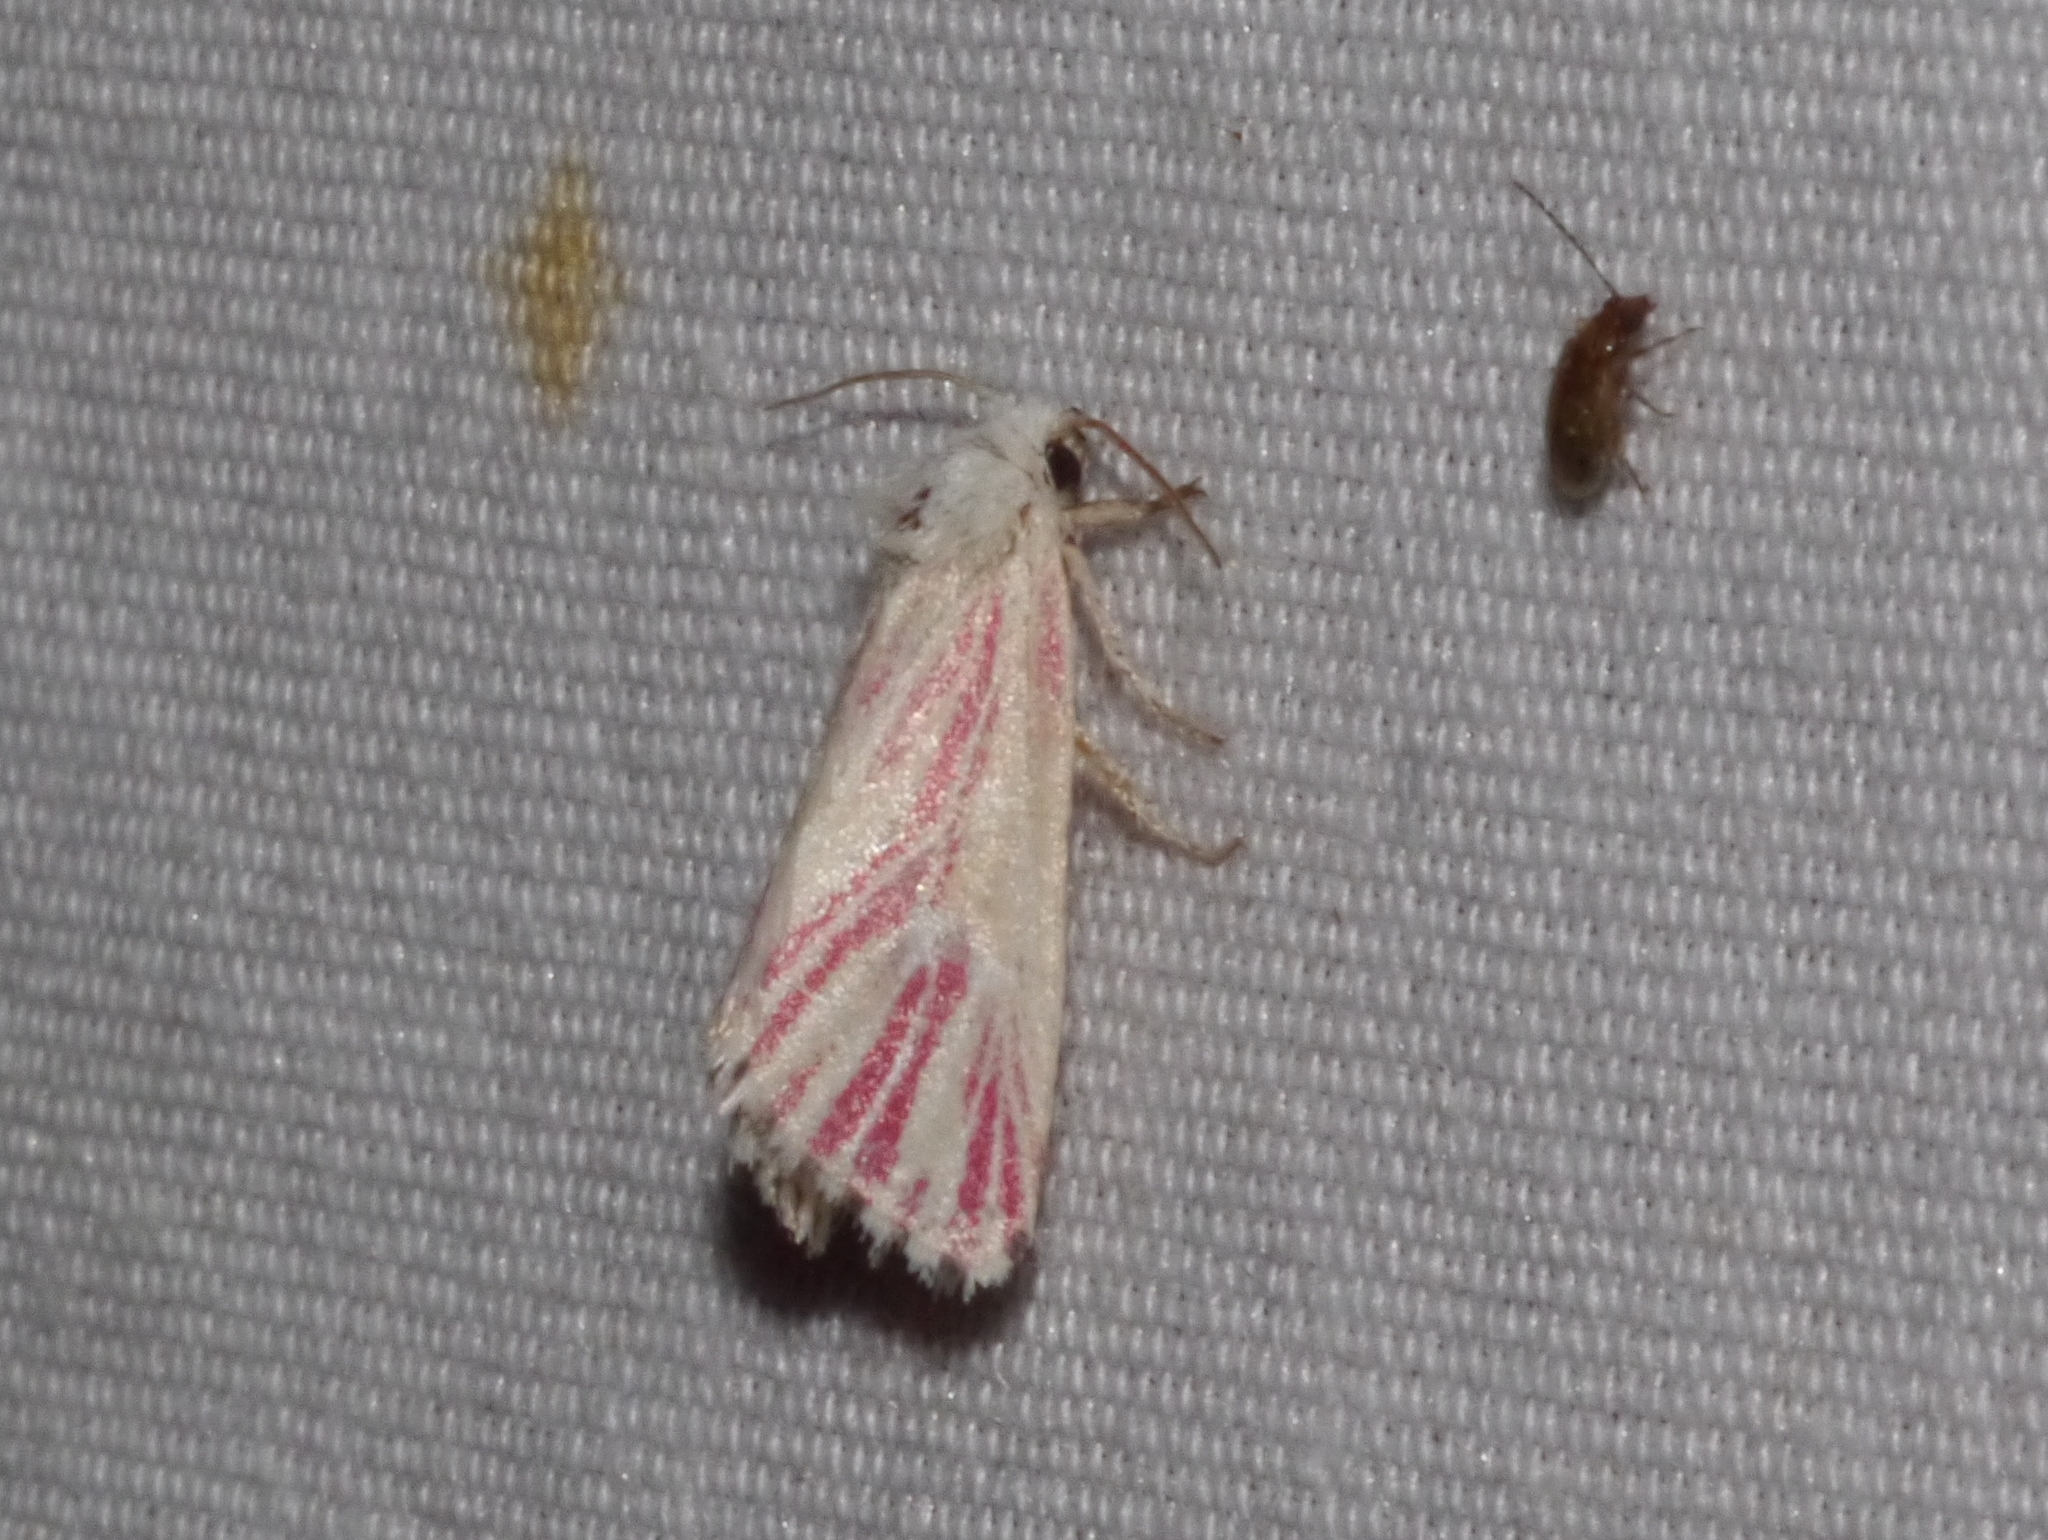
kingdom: Animalia
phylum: Arthropoda
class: Insecta
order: Lepidoptera
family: Noctuidae
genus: Lythrodes
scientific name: Lythrodes radiatus
